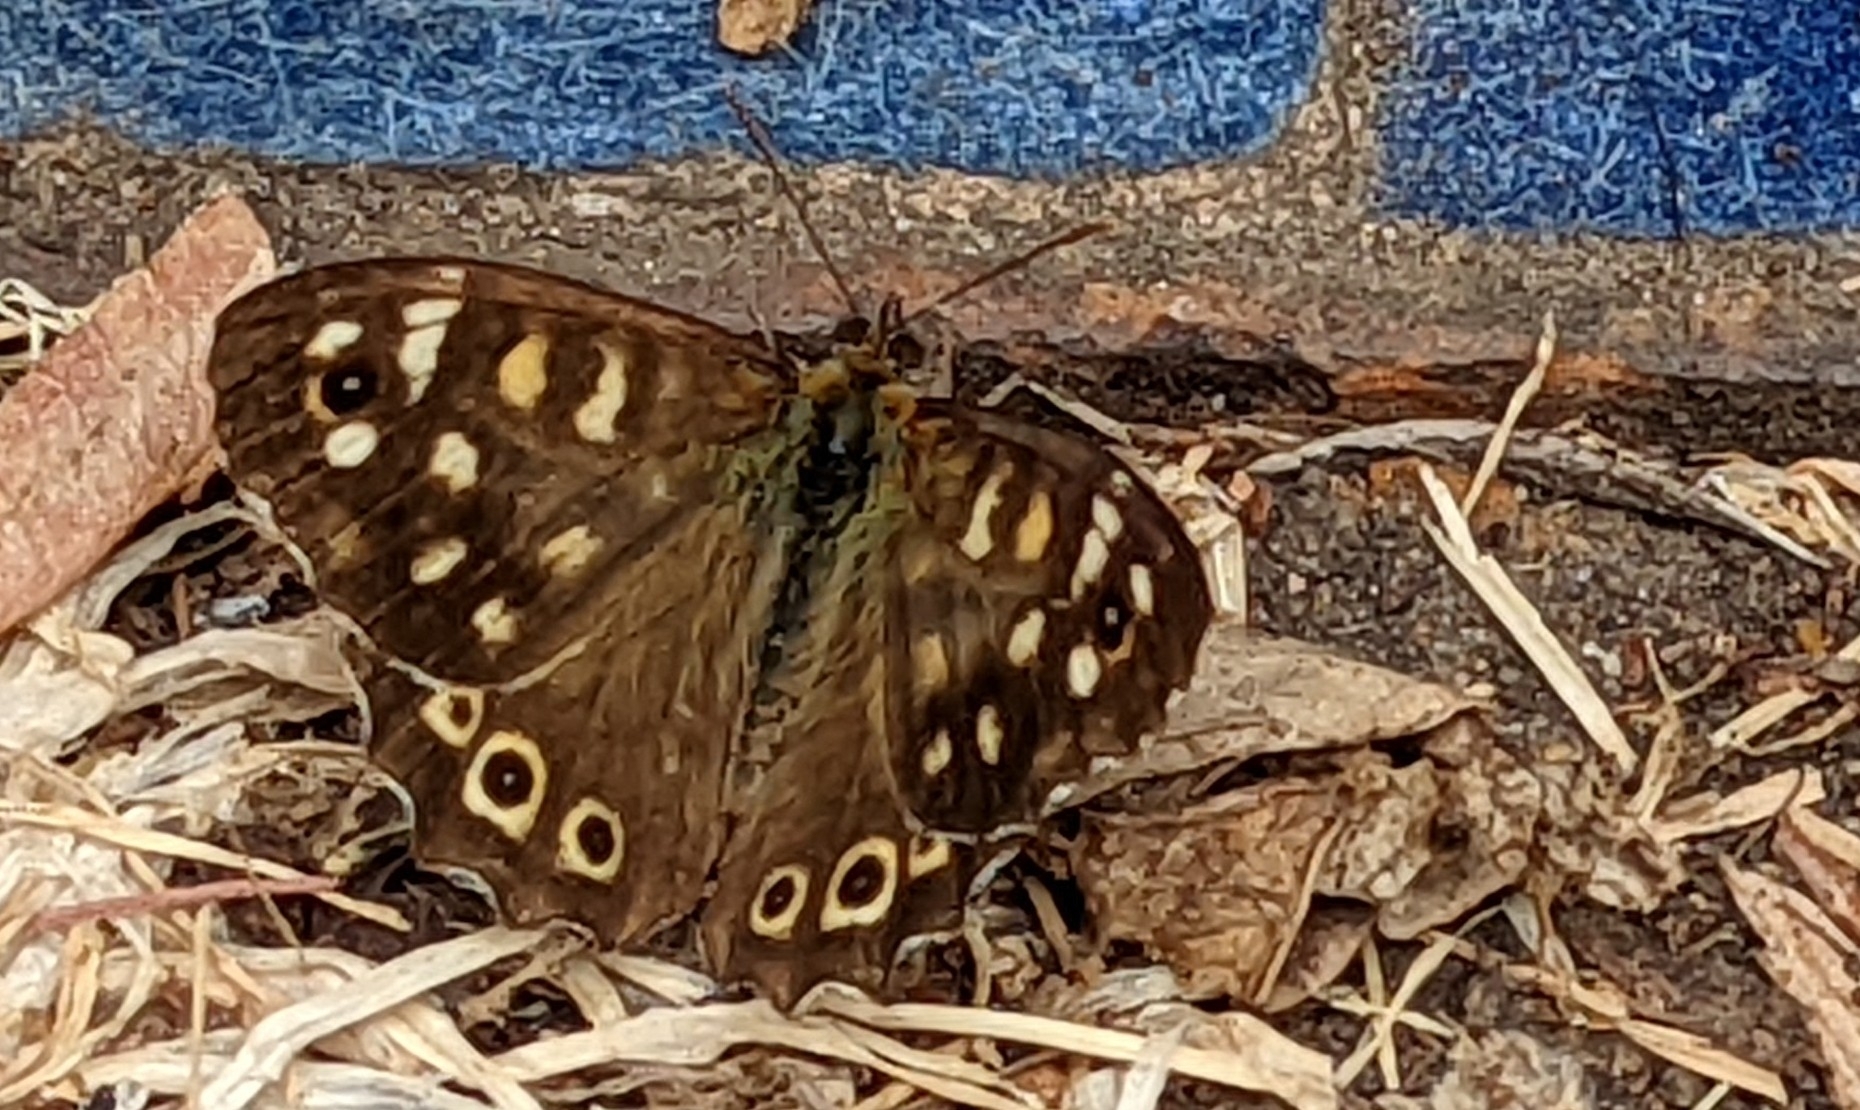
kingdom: Animalia
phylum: Arthropoda
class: Insecta
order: Lepidoptera
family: Nymphalidae
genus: Pararge
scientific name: Pararge aegeria
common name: Speckled wood
